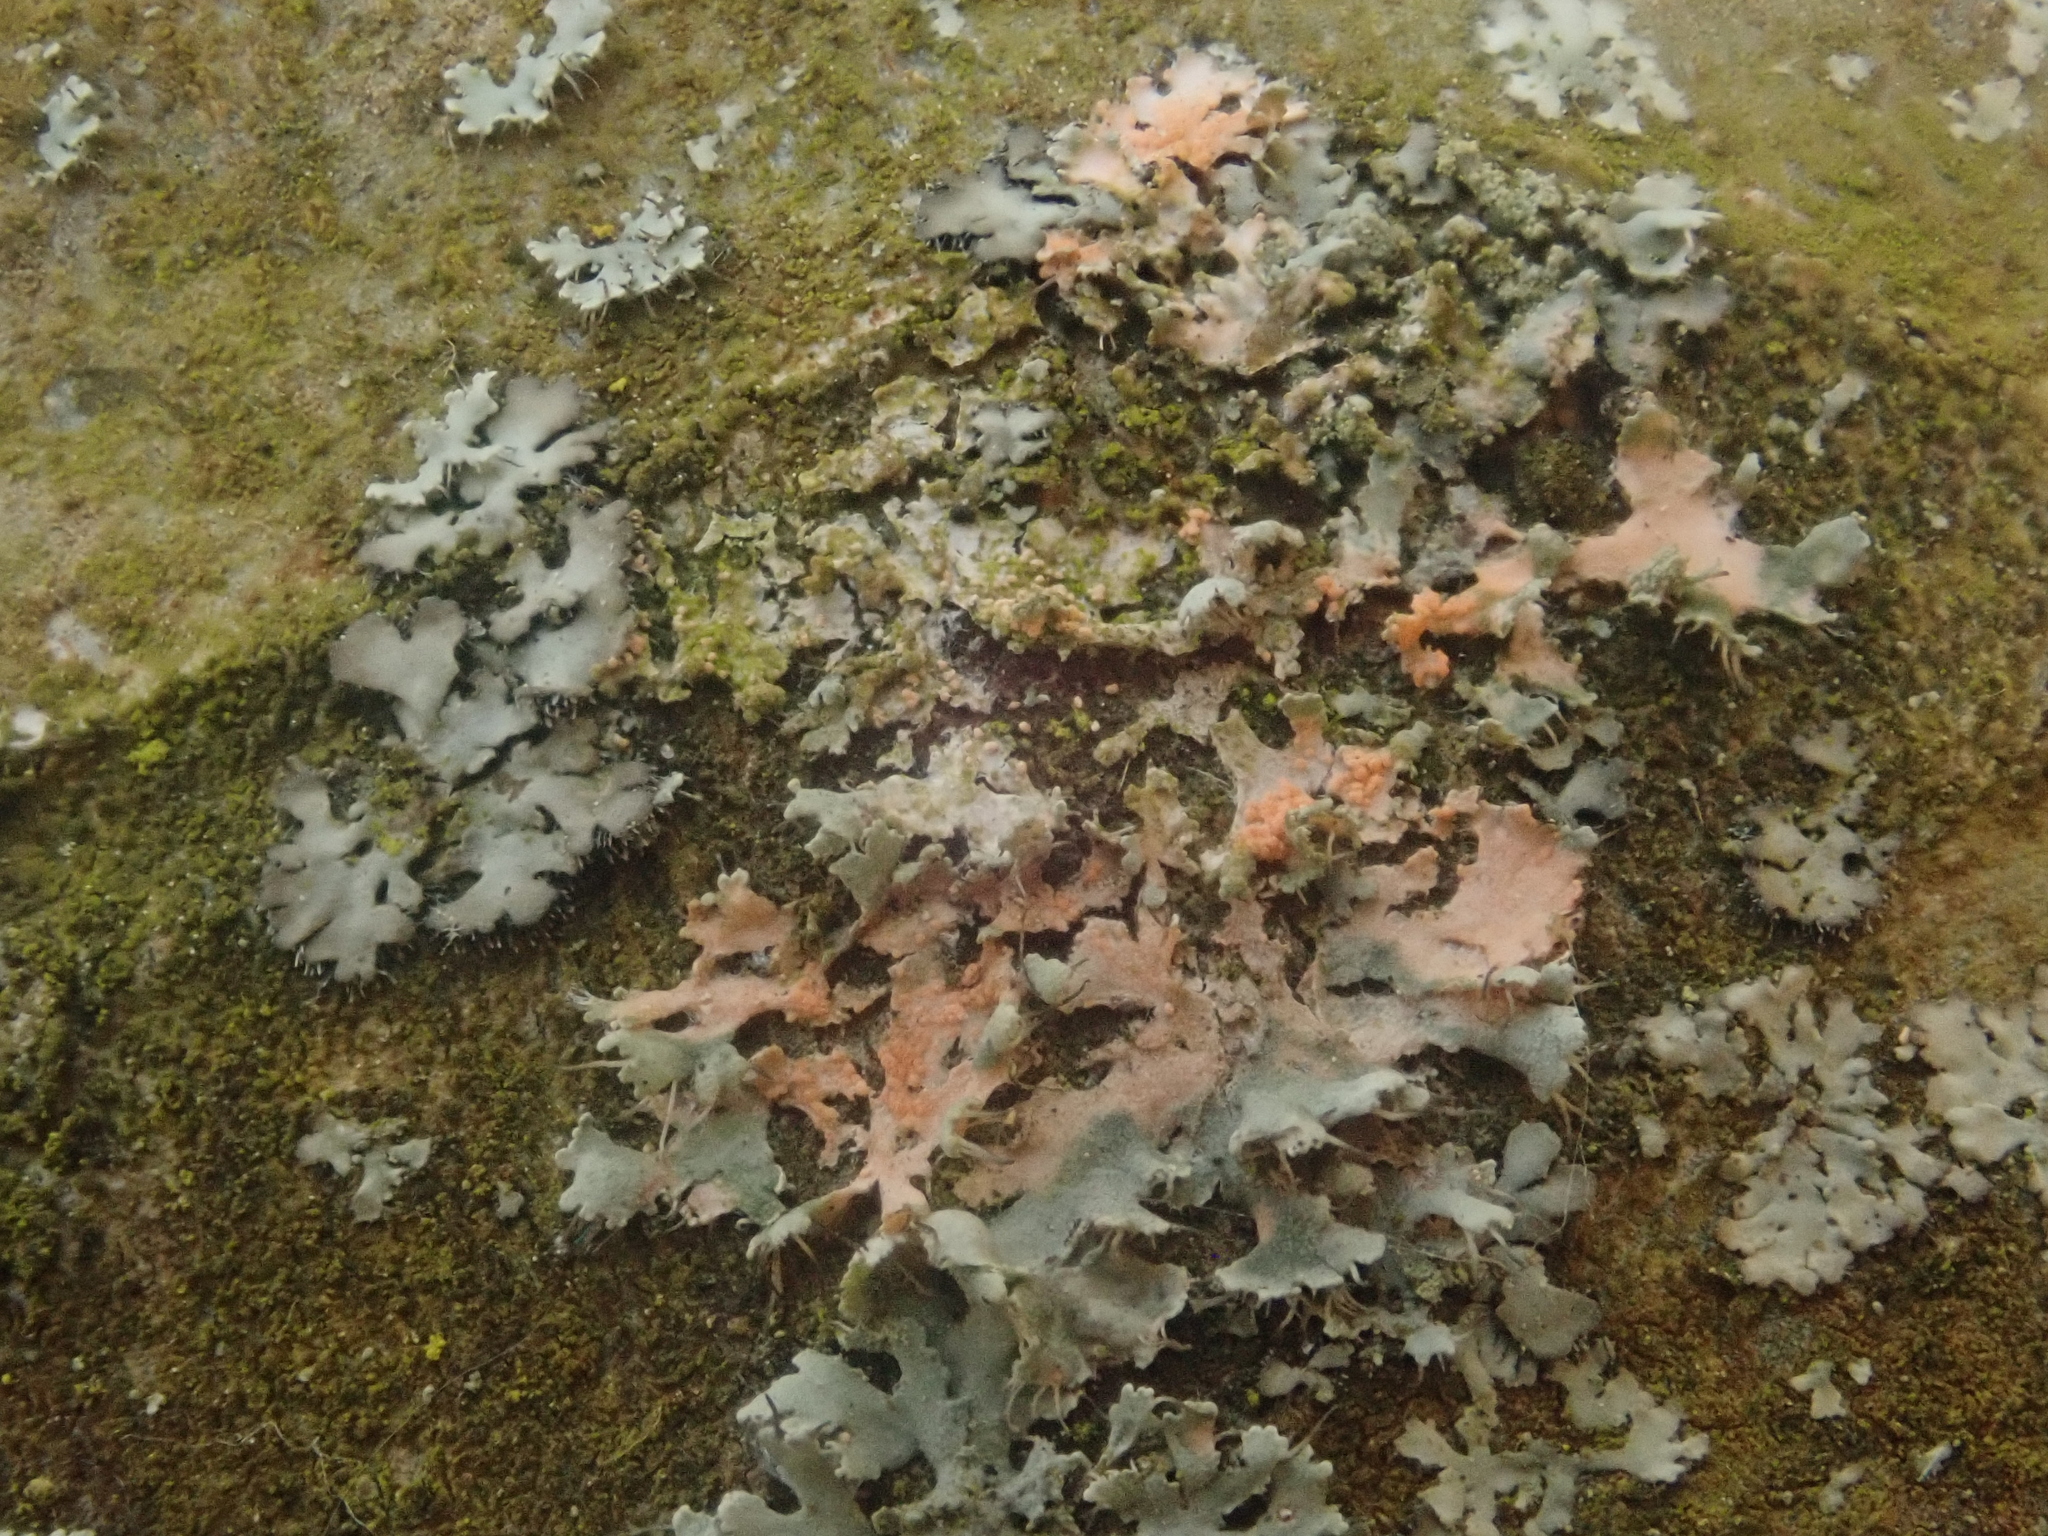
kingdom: Fungi
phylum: Basidiomycota
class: Agaricomycetes
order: Corticiales
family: Corticiaceae
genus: Erythricium
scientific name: Erythricium aurantiacum
